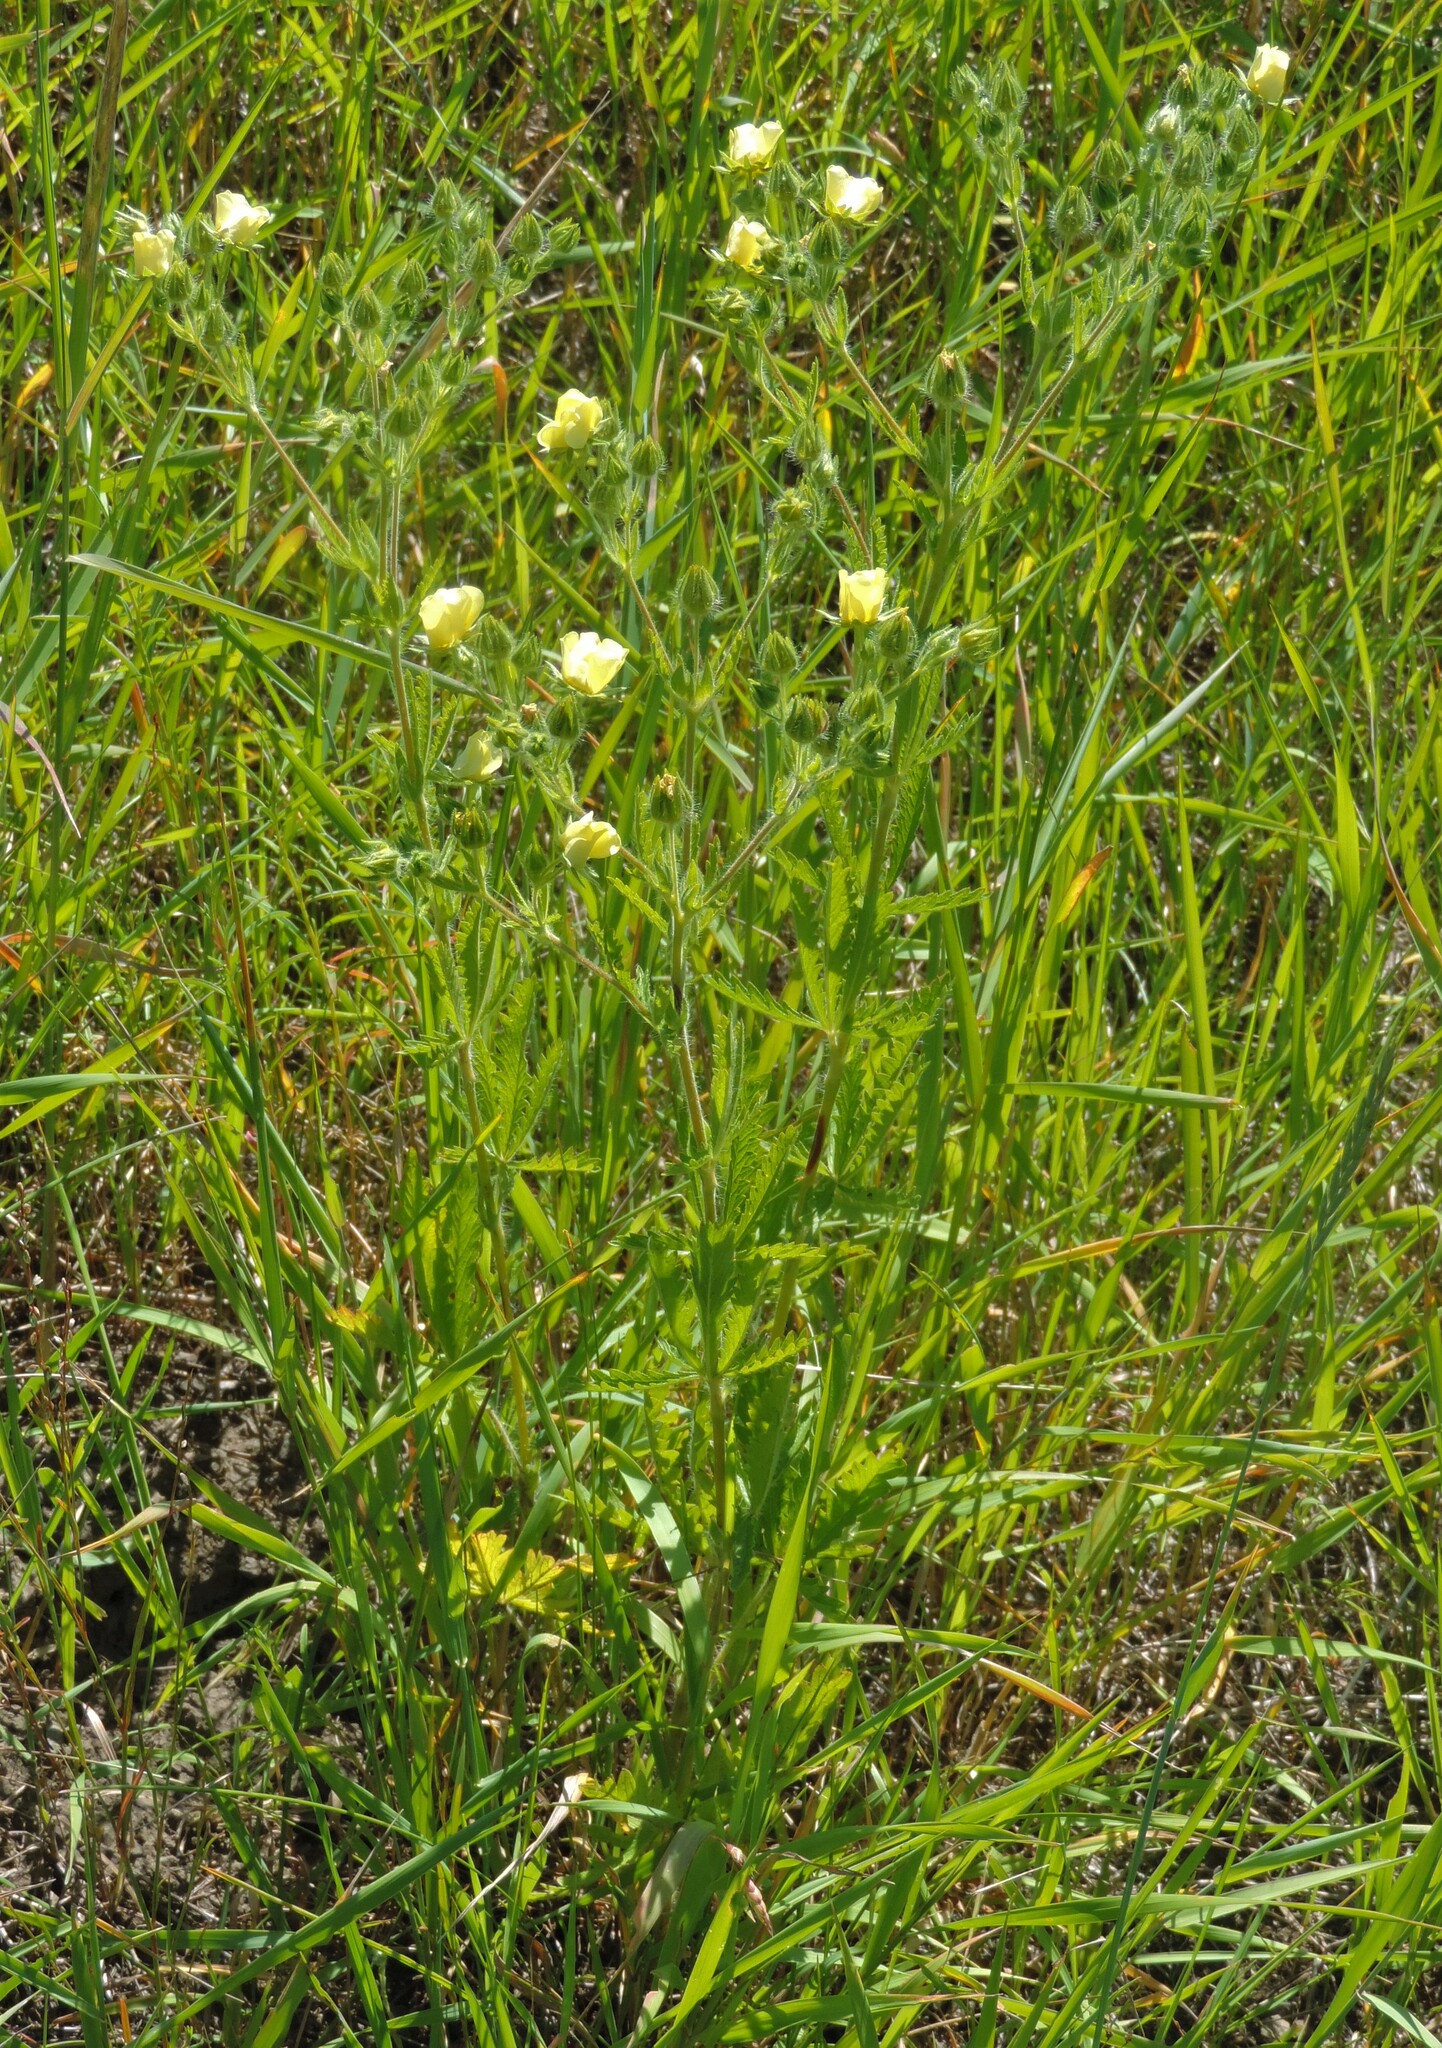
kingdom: Plantae
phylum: Tracheophyta
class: Magnoliopsida
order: Rosales
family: Rosaceae
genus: Potentilla
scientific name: Potentilla recta
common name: Sulphur cinquefoil
